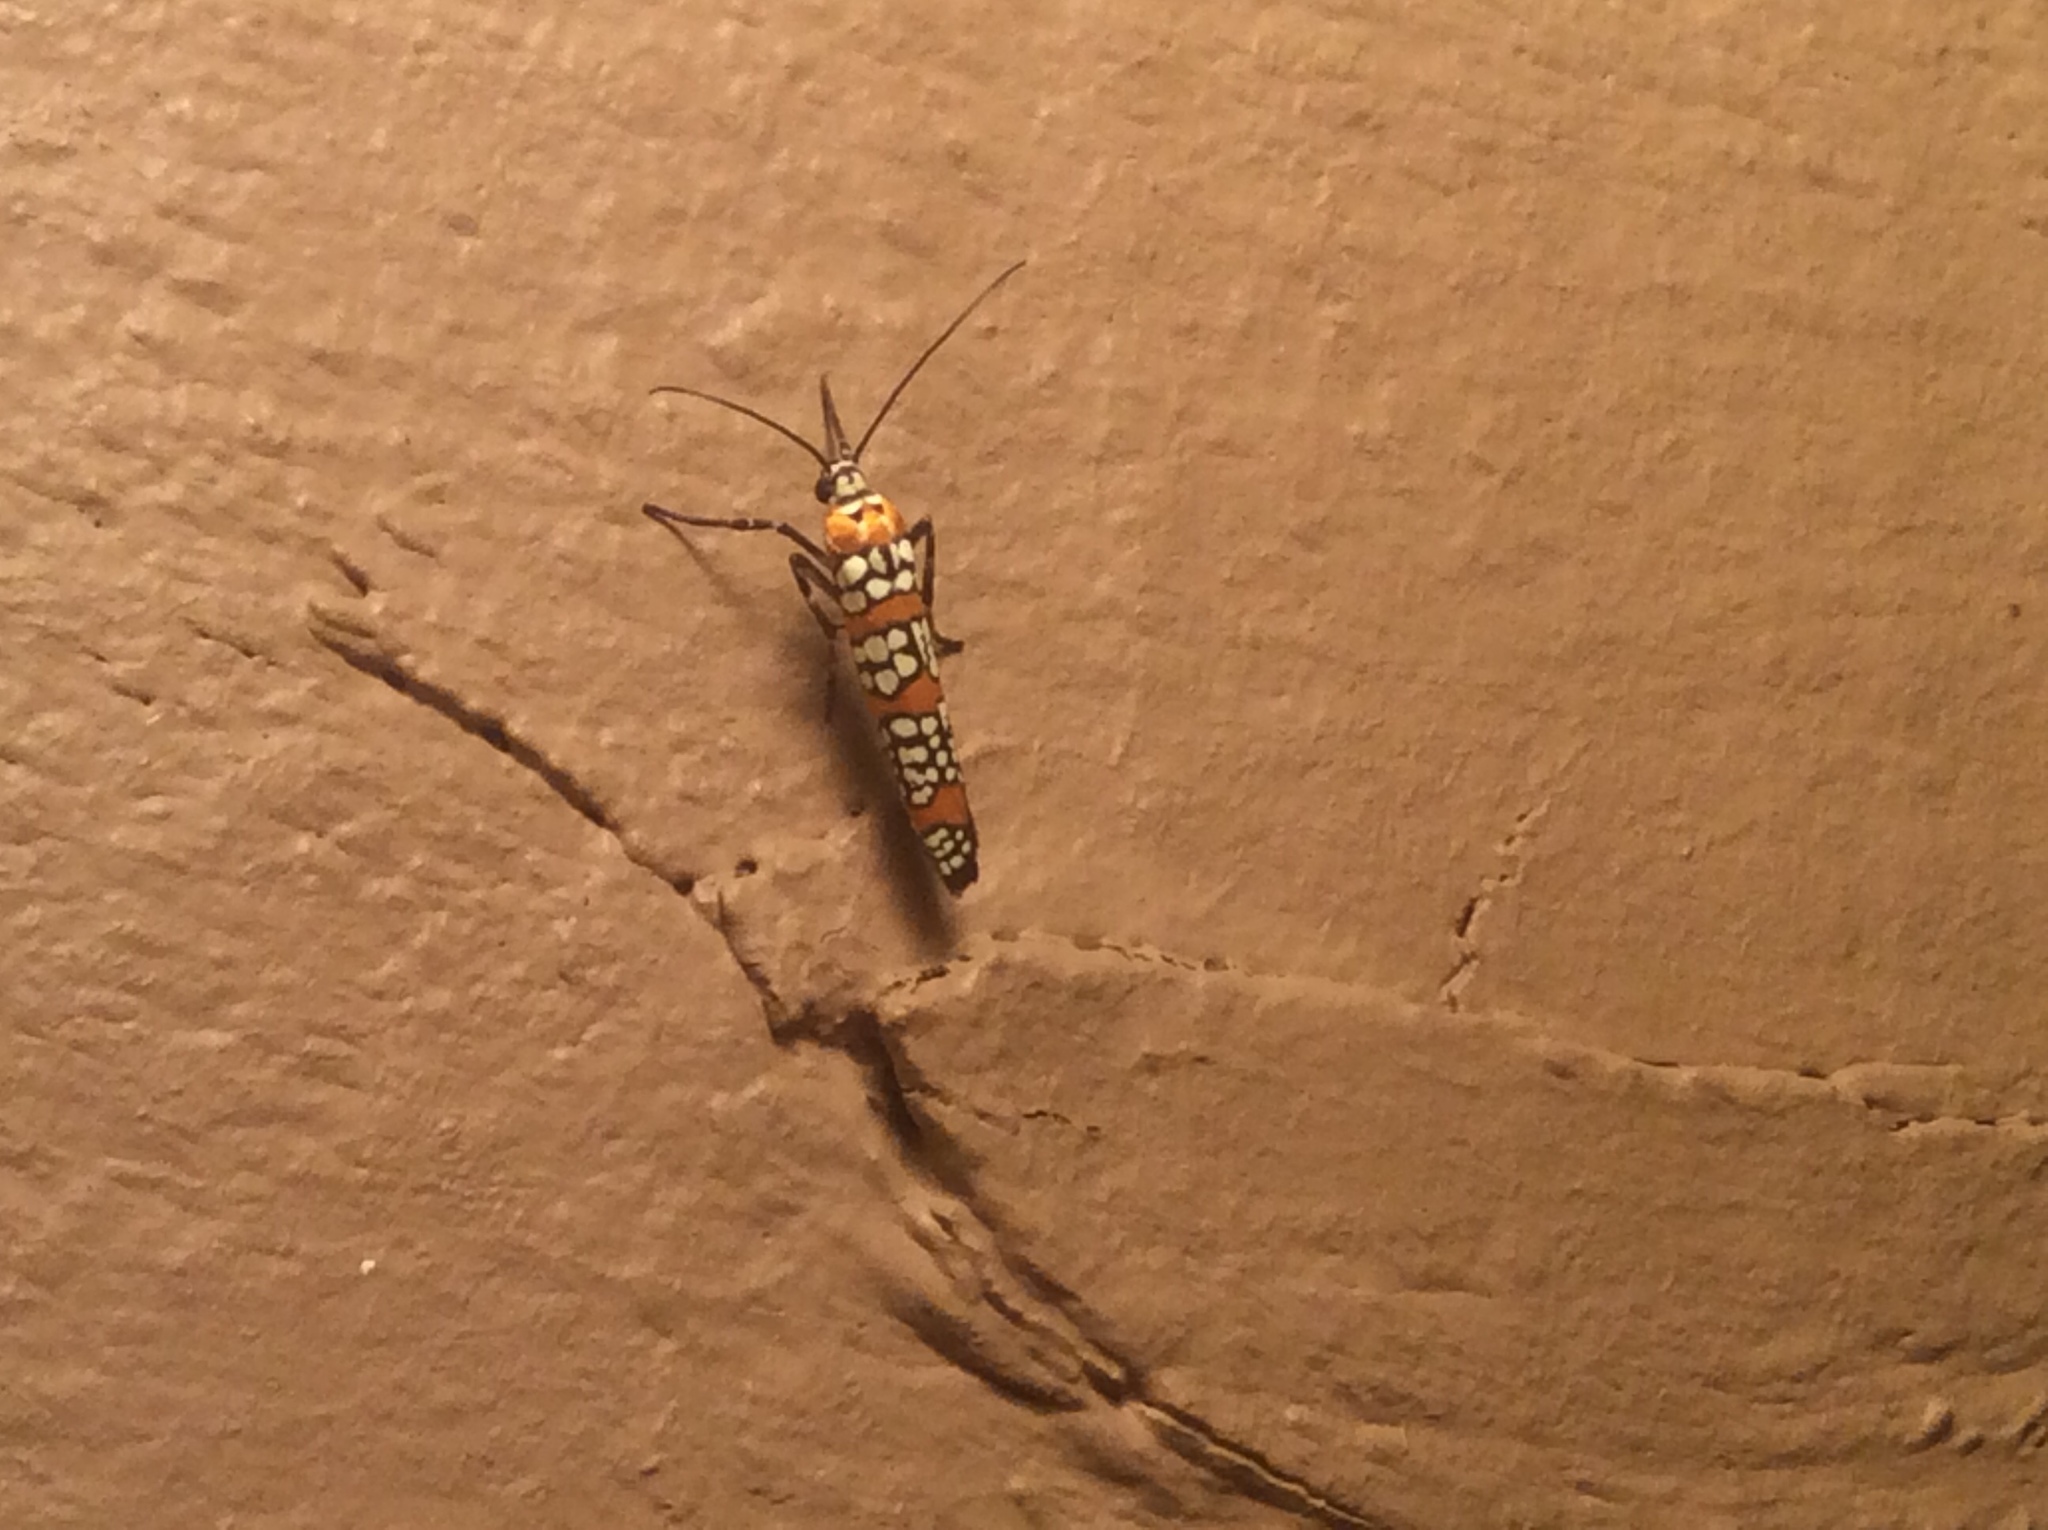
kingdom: Animalia
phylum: Arthropoda
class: Insecta
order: Lepidoptera
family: Attevidae
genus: Atteva
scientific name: Atteva punctella
